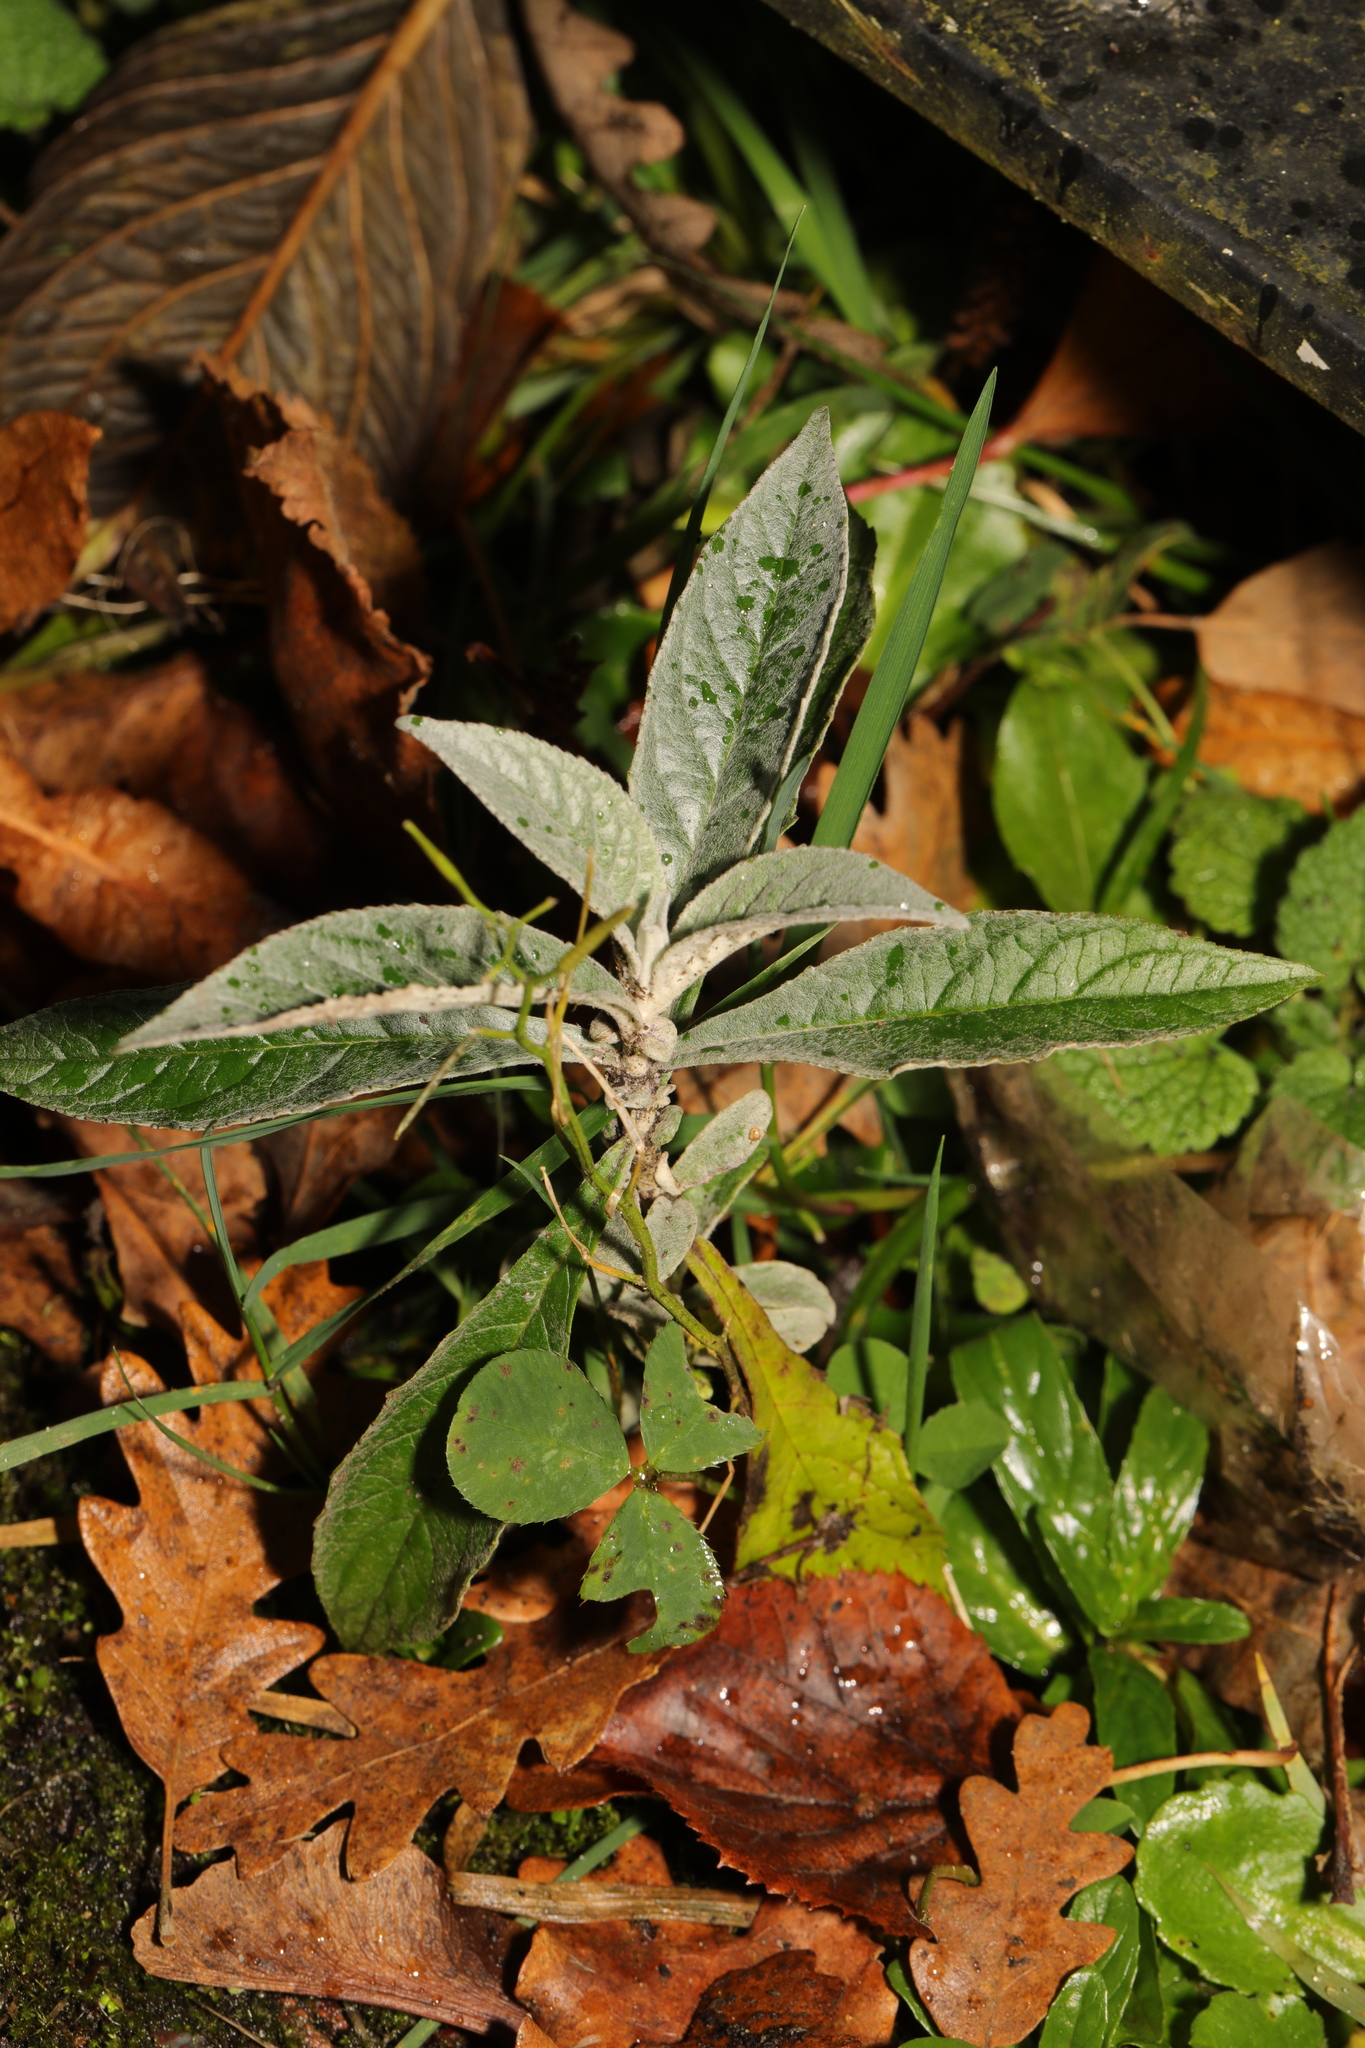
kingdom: Plantae
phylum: Tracheophyta
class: Magnoliopsida
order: Lamiales
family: Scrophulariaceae
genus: Buddleja
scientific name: Buddleja davidii
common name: Butterfly-bush
